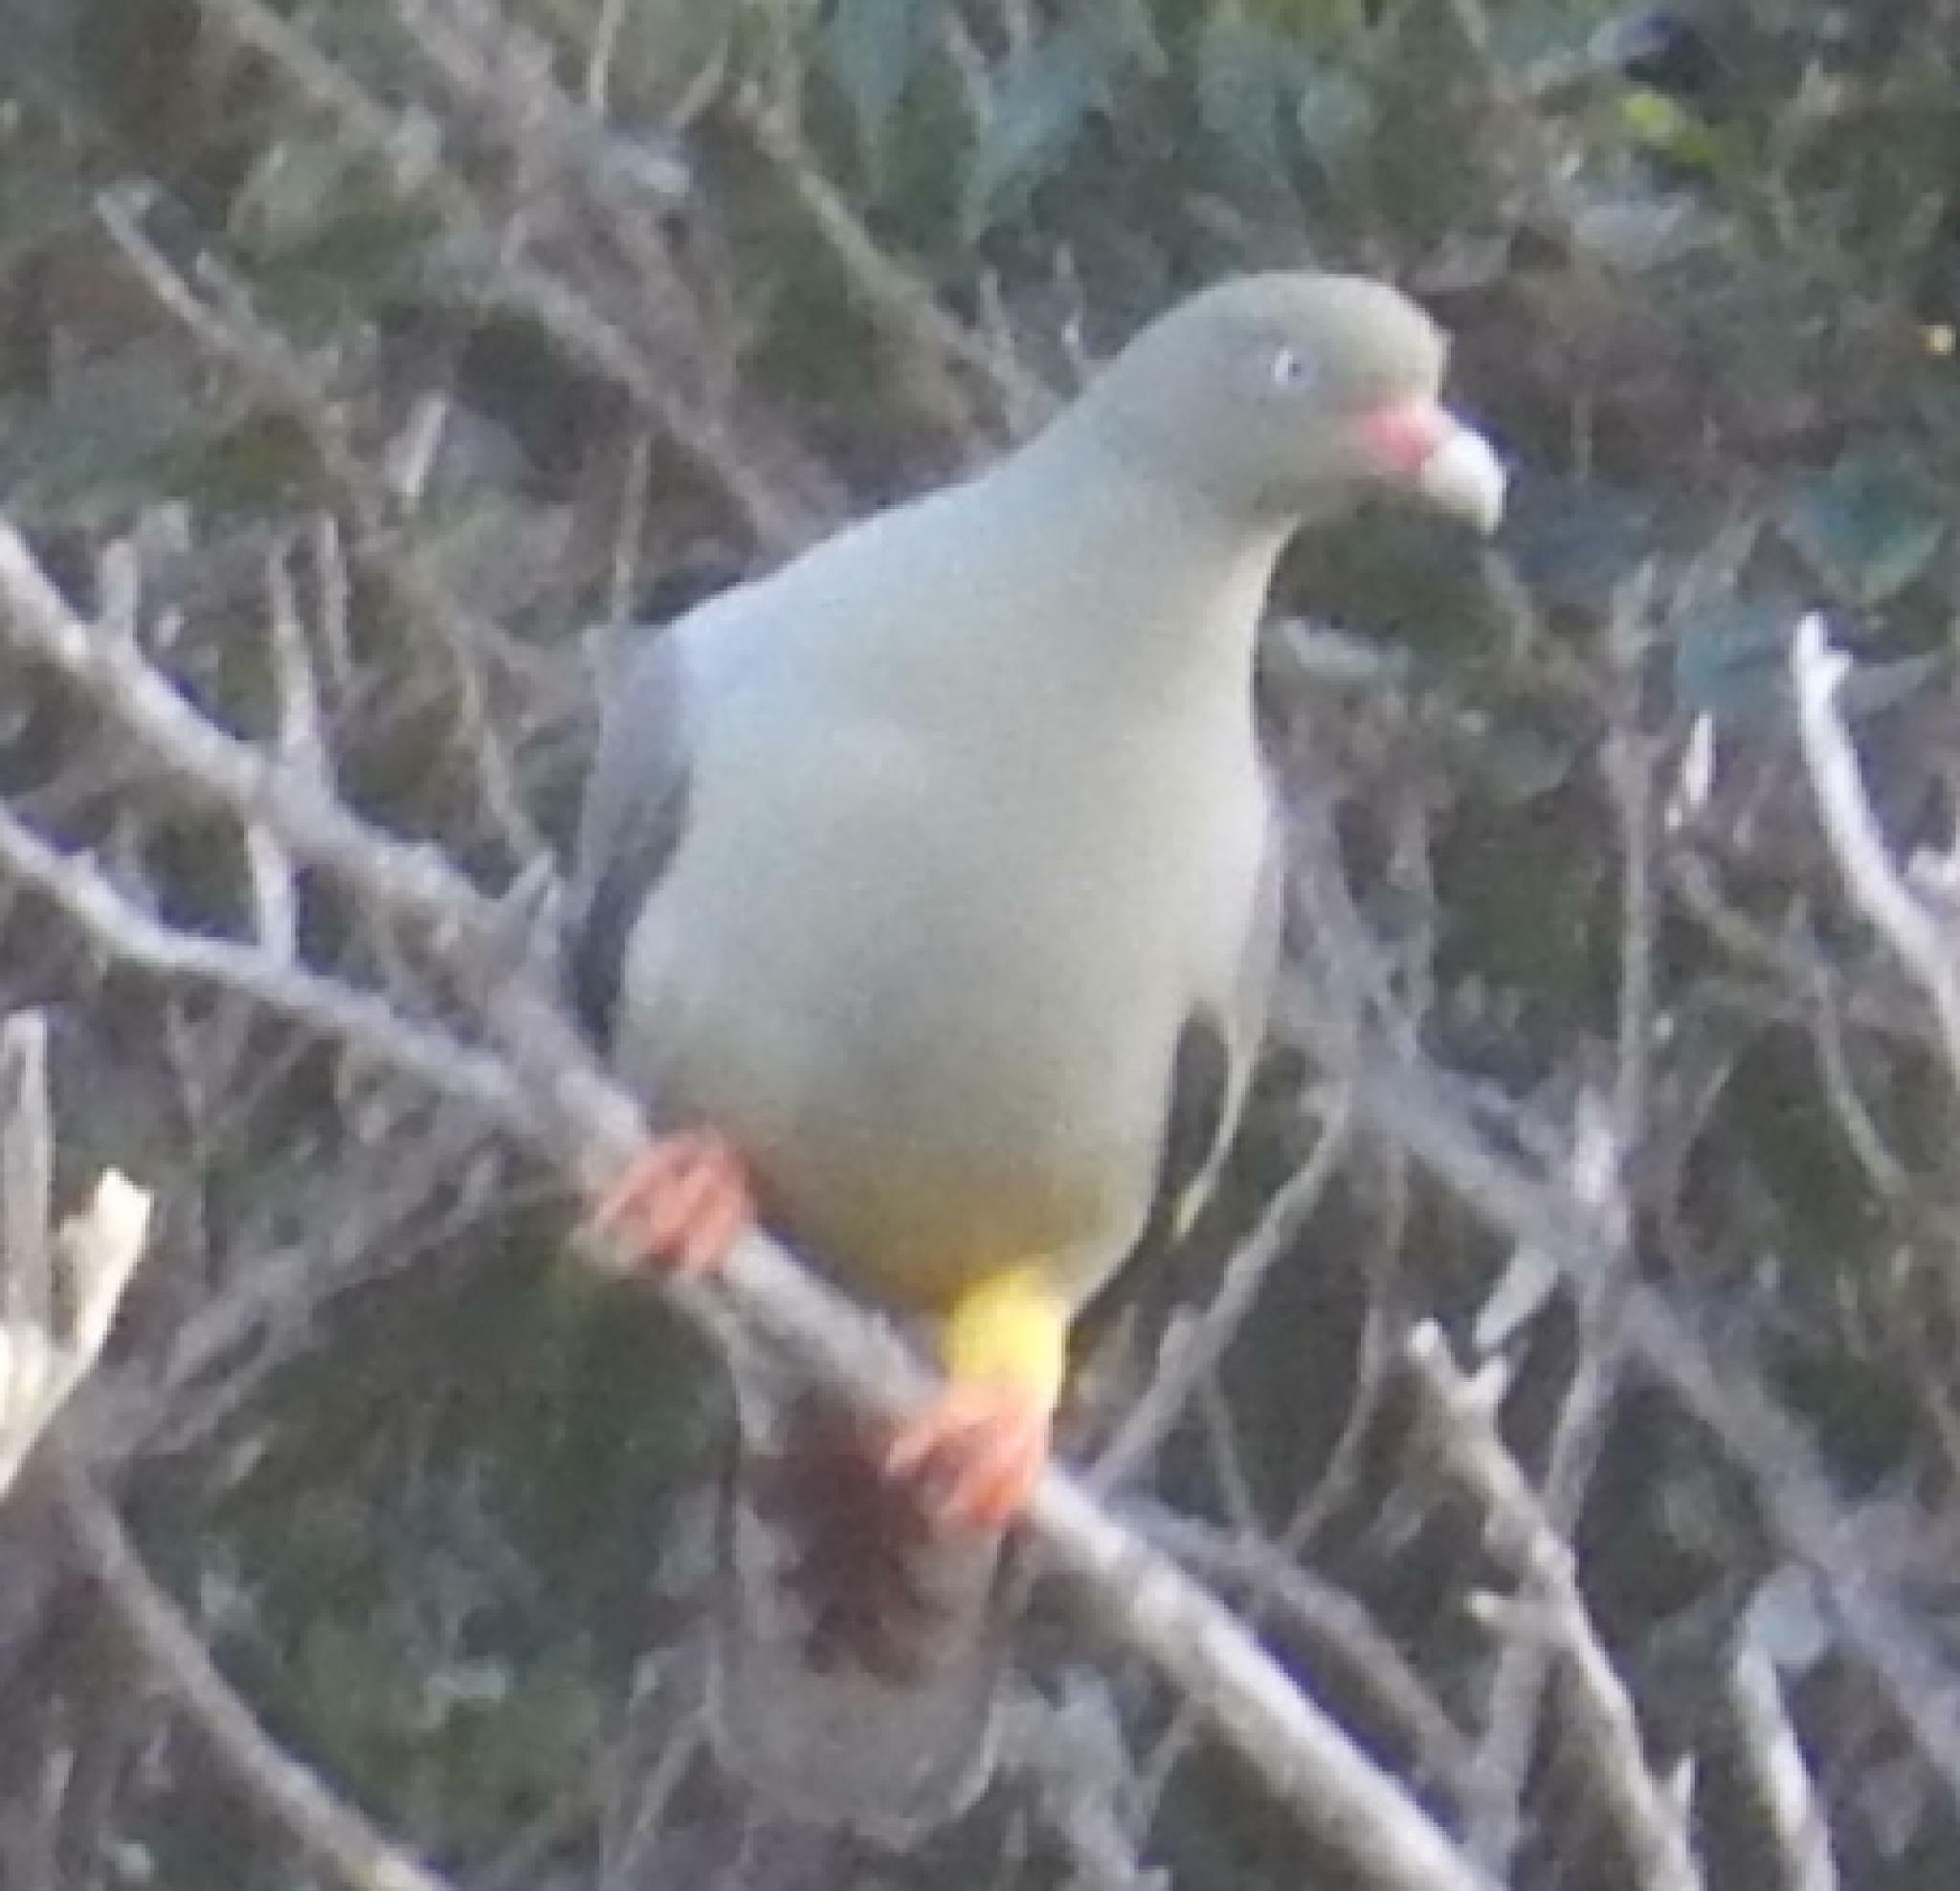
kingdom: Animalia
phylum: Chordata
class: Aves
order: Columbiformes
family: Columbidae
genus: Treron
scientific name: Treron calvus
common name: African green pigeon
